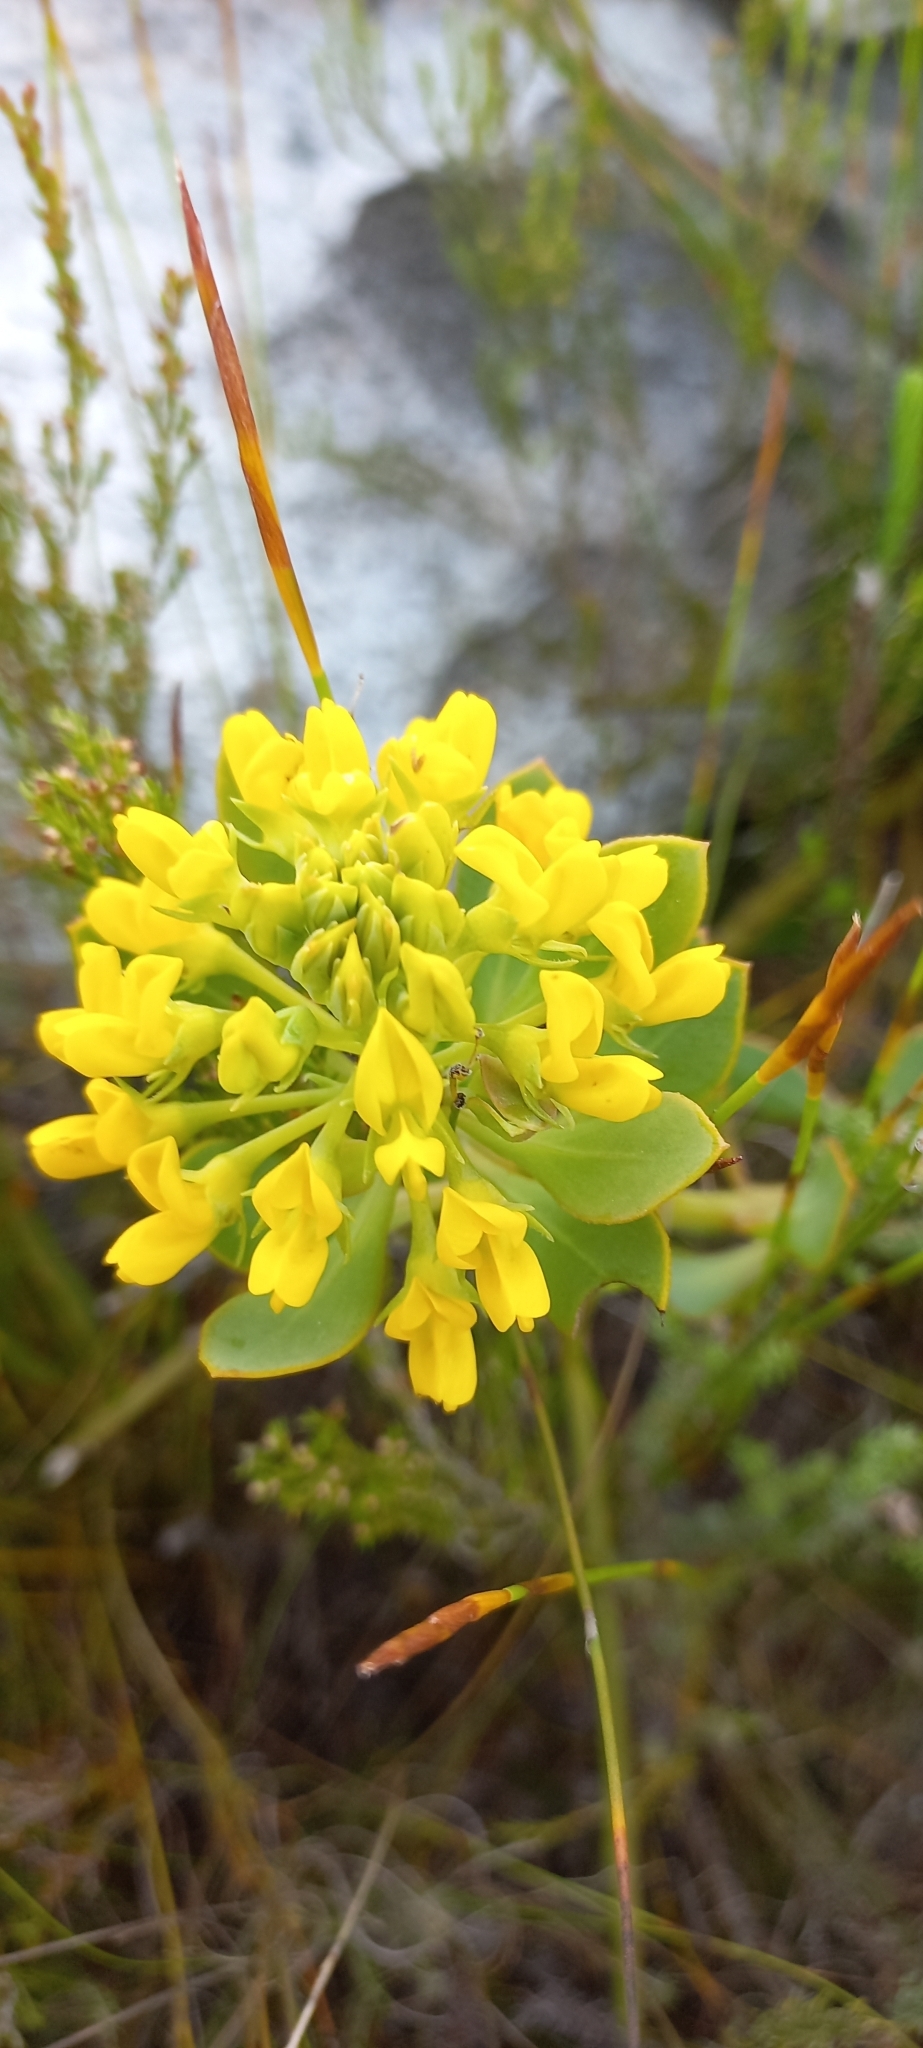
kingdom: Plantae
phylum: Tracheophyta
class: Magnoliopsida
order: Fabales
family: Fabaceae
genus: Rafnia
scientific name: Rafnia capensis
